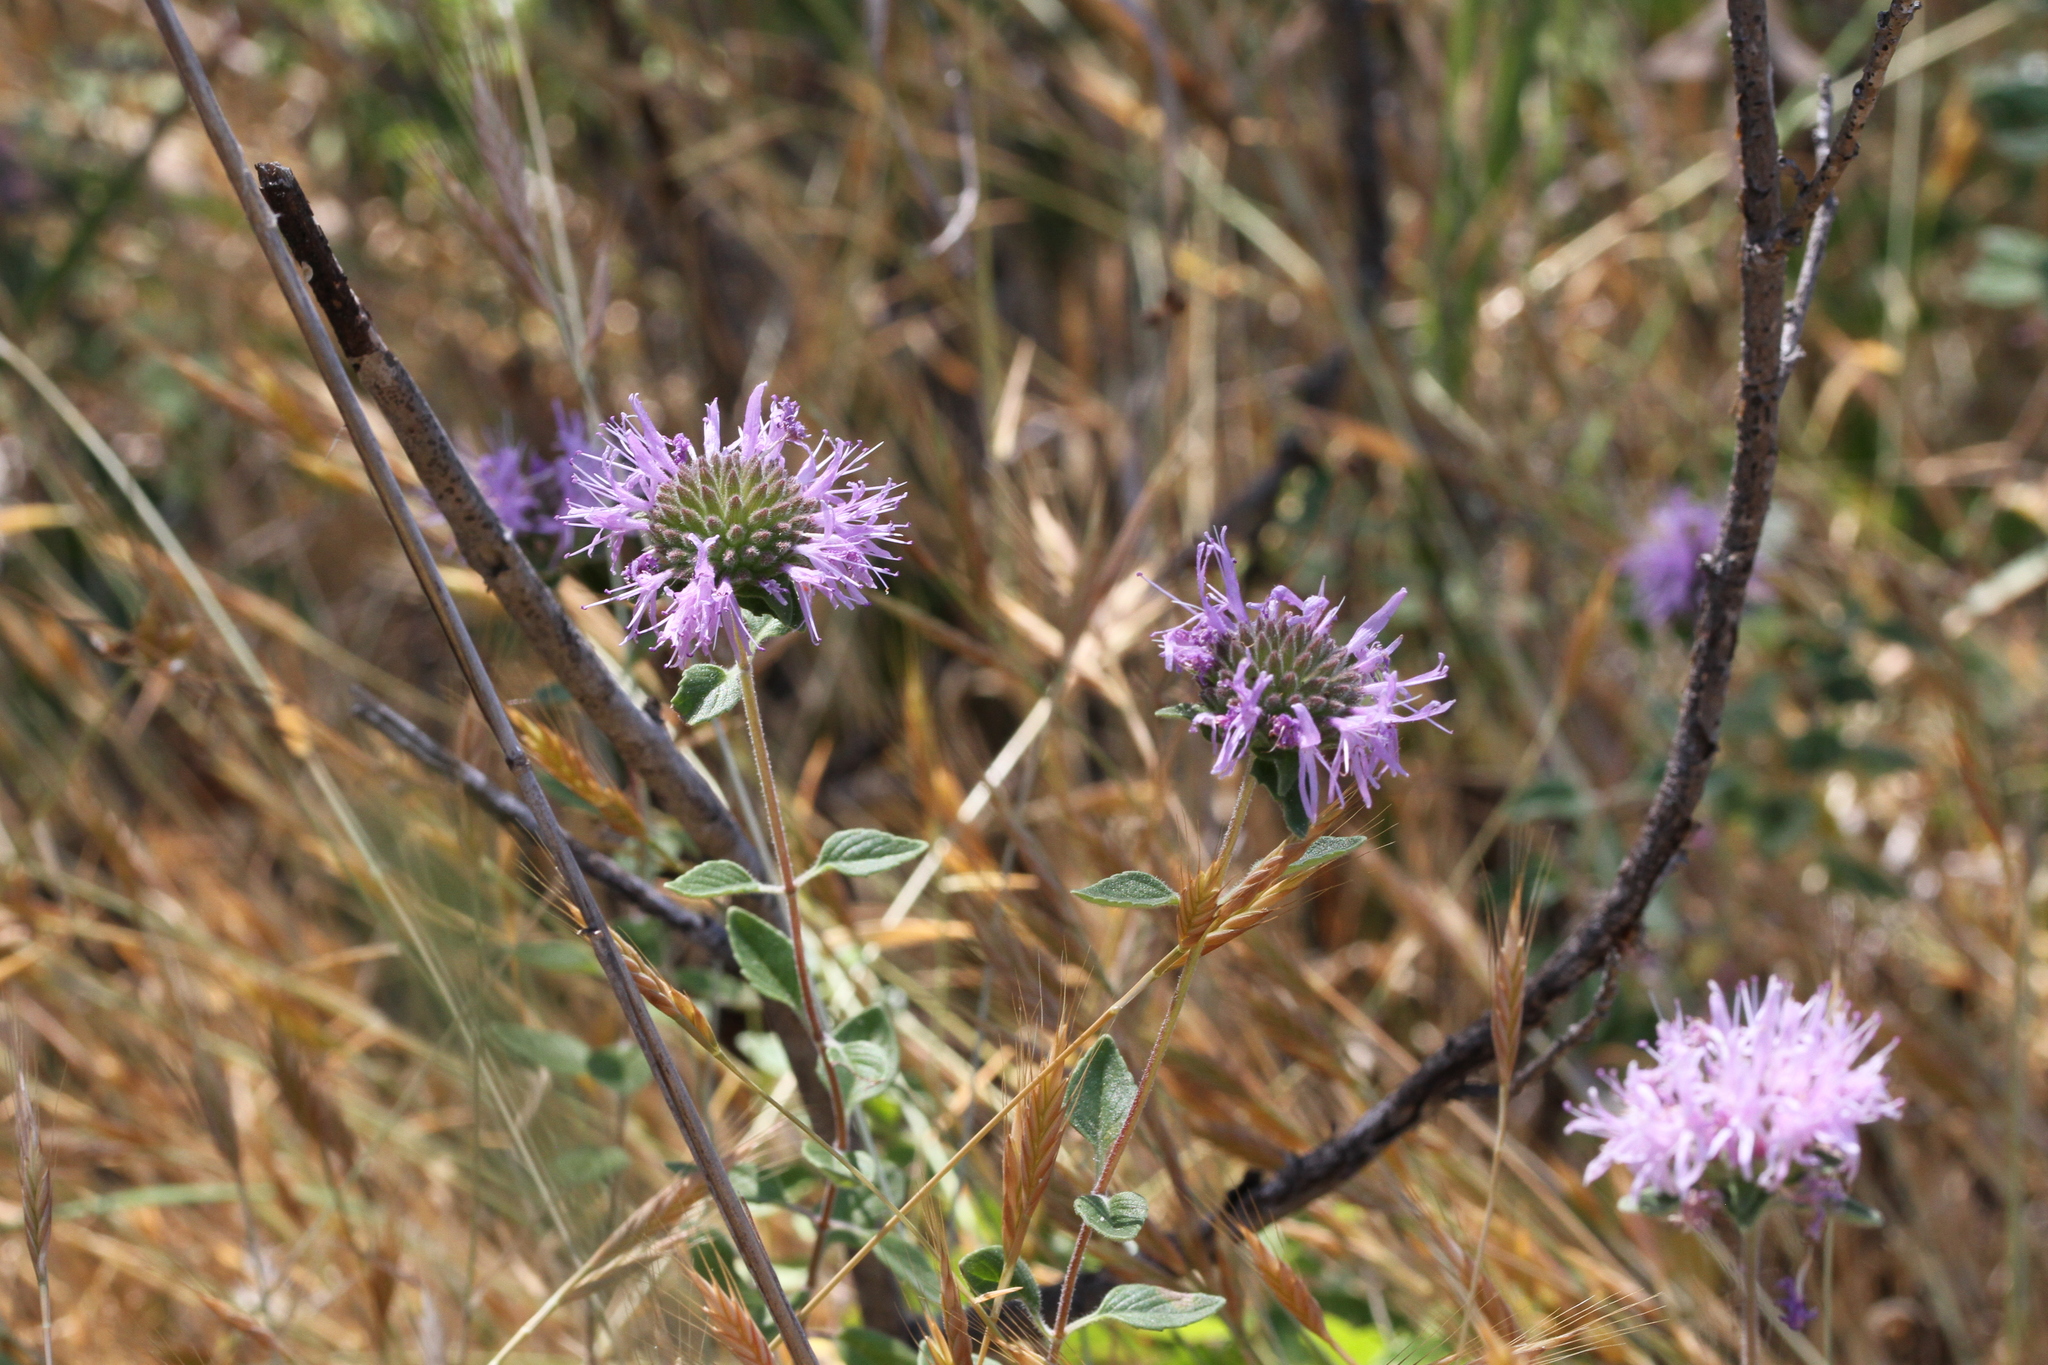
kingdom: Plantae
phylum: Tracheophyta
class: Magnoliopsida
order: Lamiales
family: Lamiaceae
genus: Monardella
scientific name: Monardella odoratissima
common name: Pacific monardella
